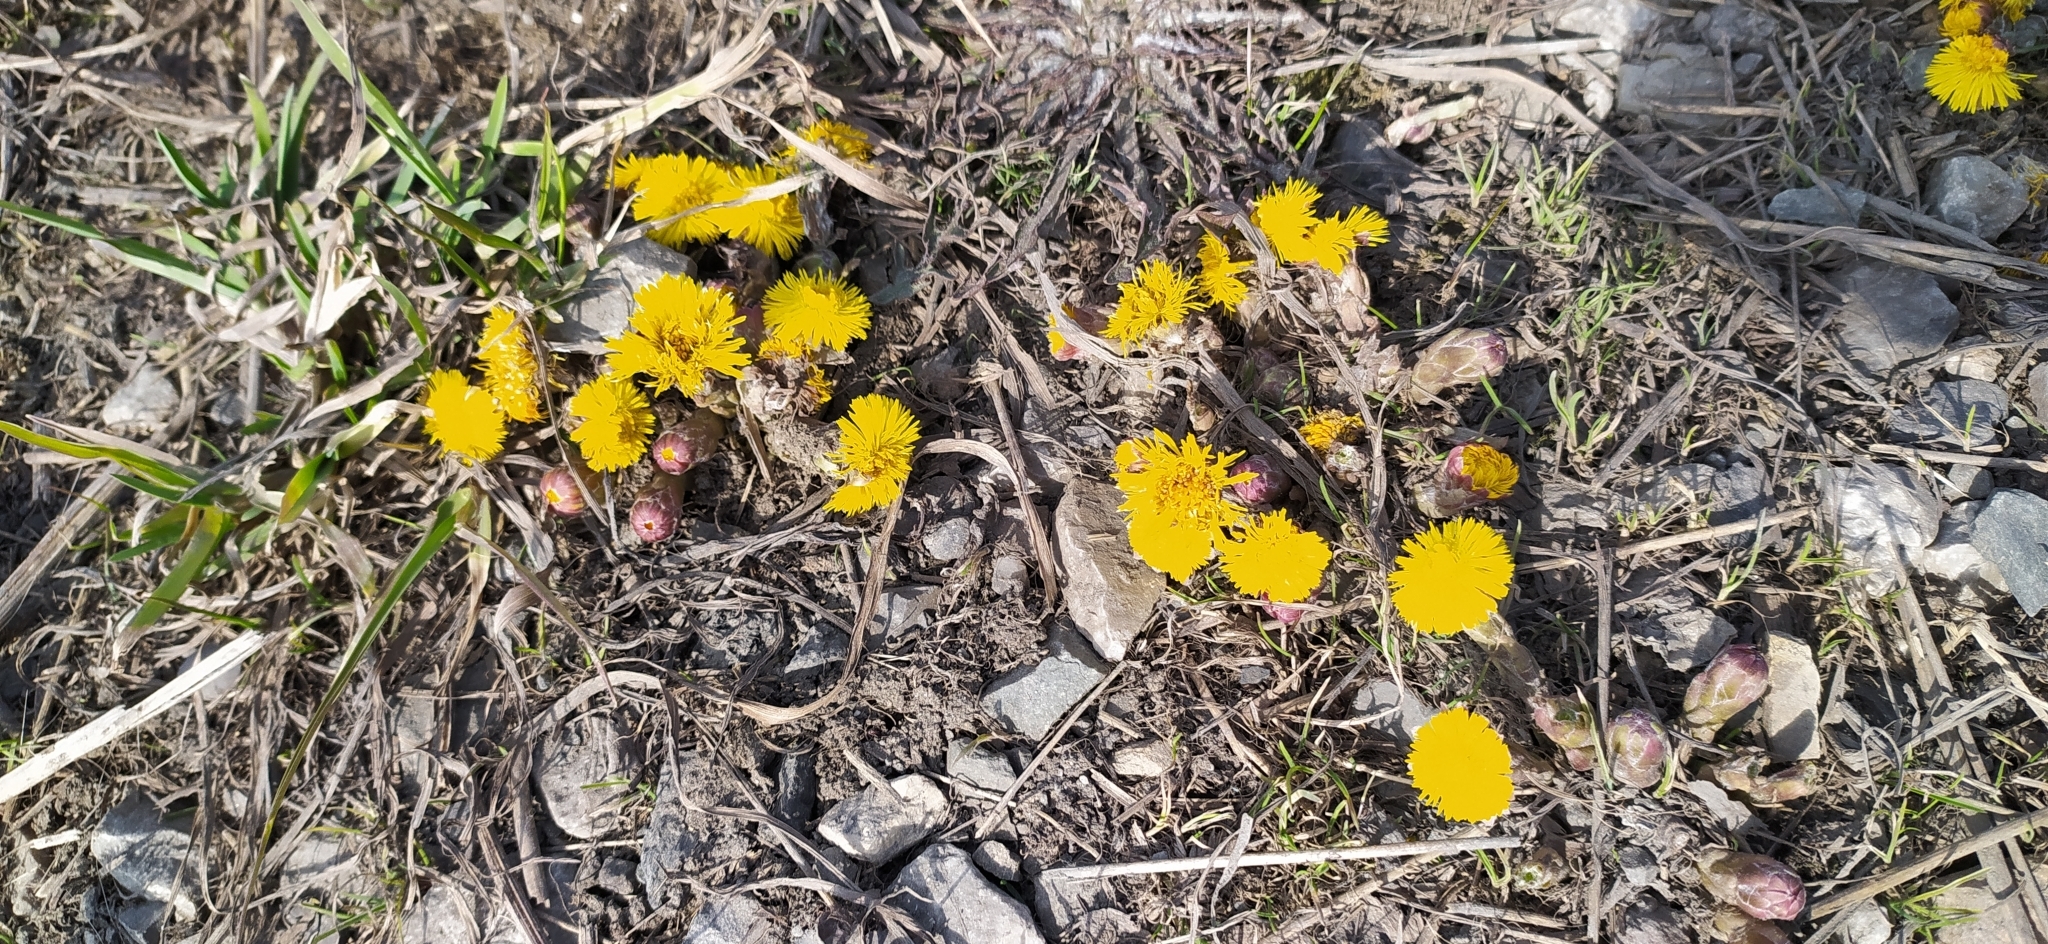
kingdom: Plantae
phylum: Tracheophyta
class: Magnoliopsida
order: Asterales
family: Asteraceae
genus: Tussilago
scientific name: Tussilago farfara
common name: Coltsfoot
